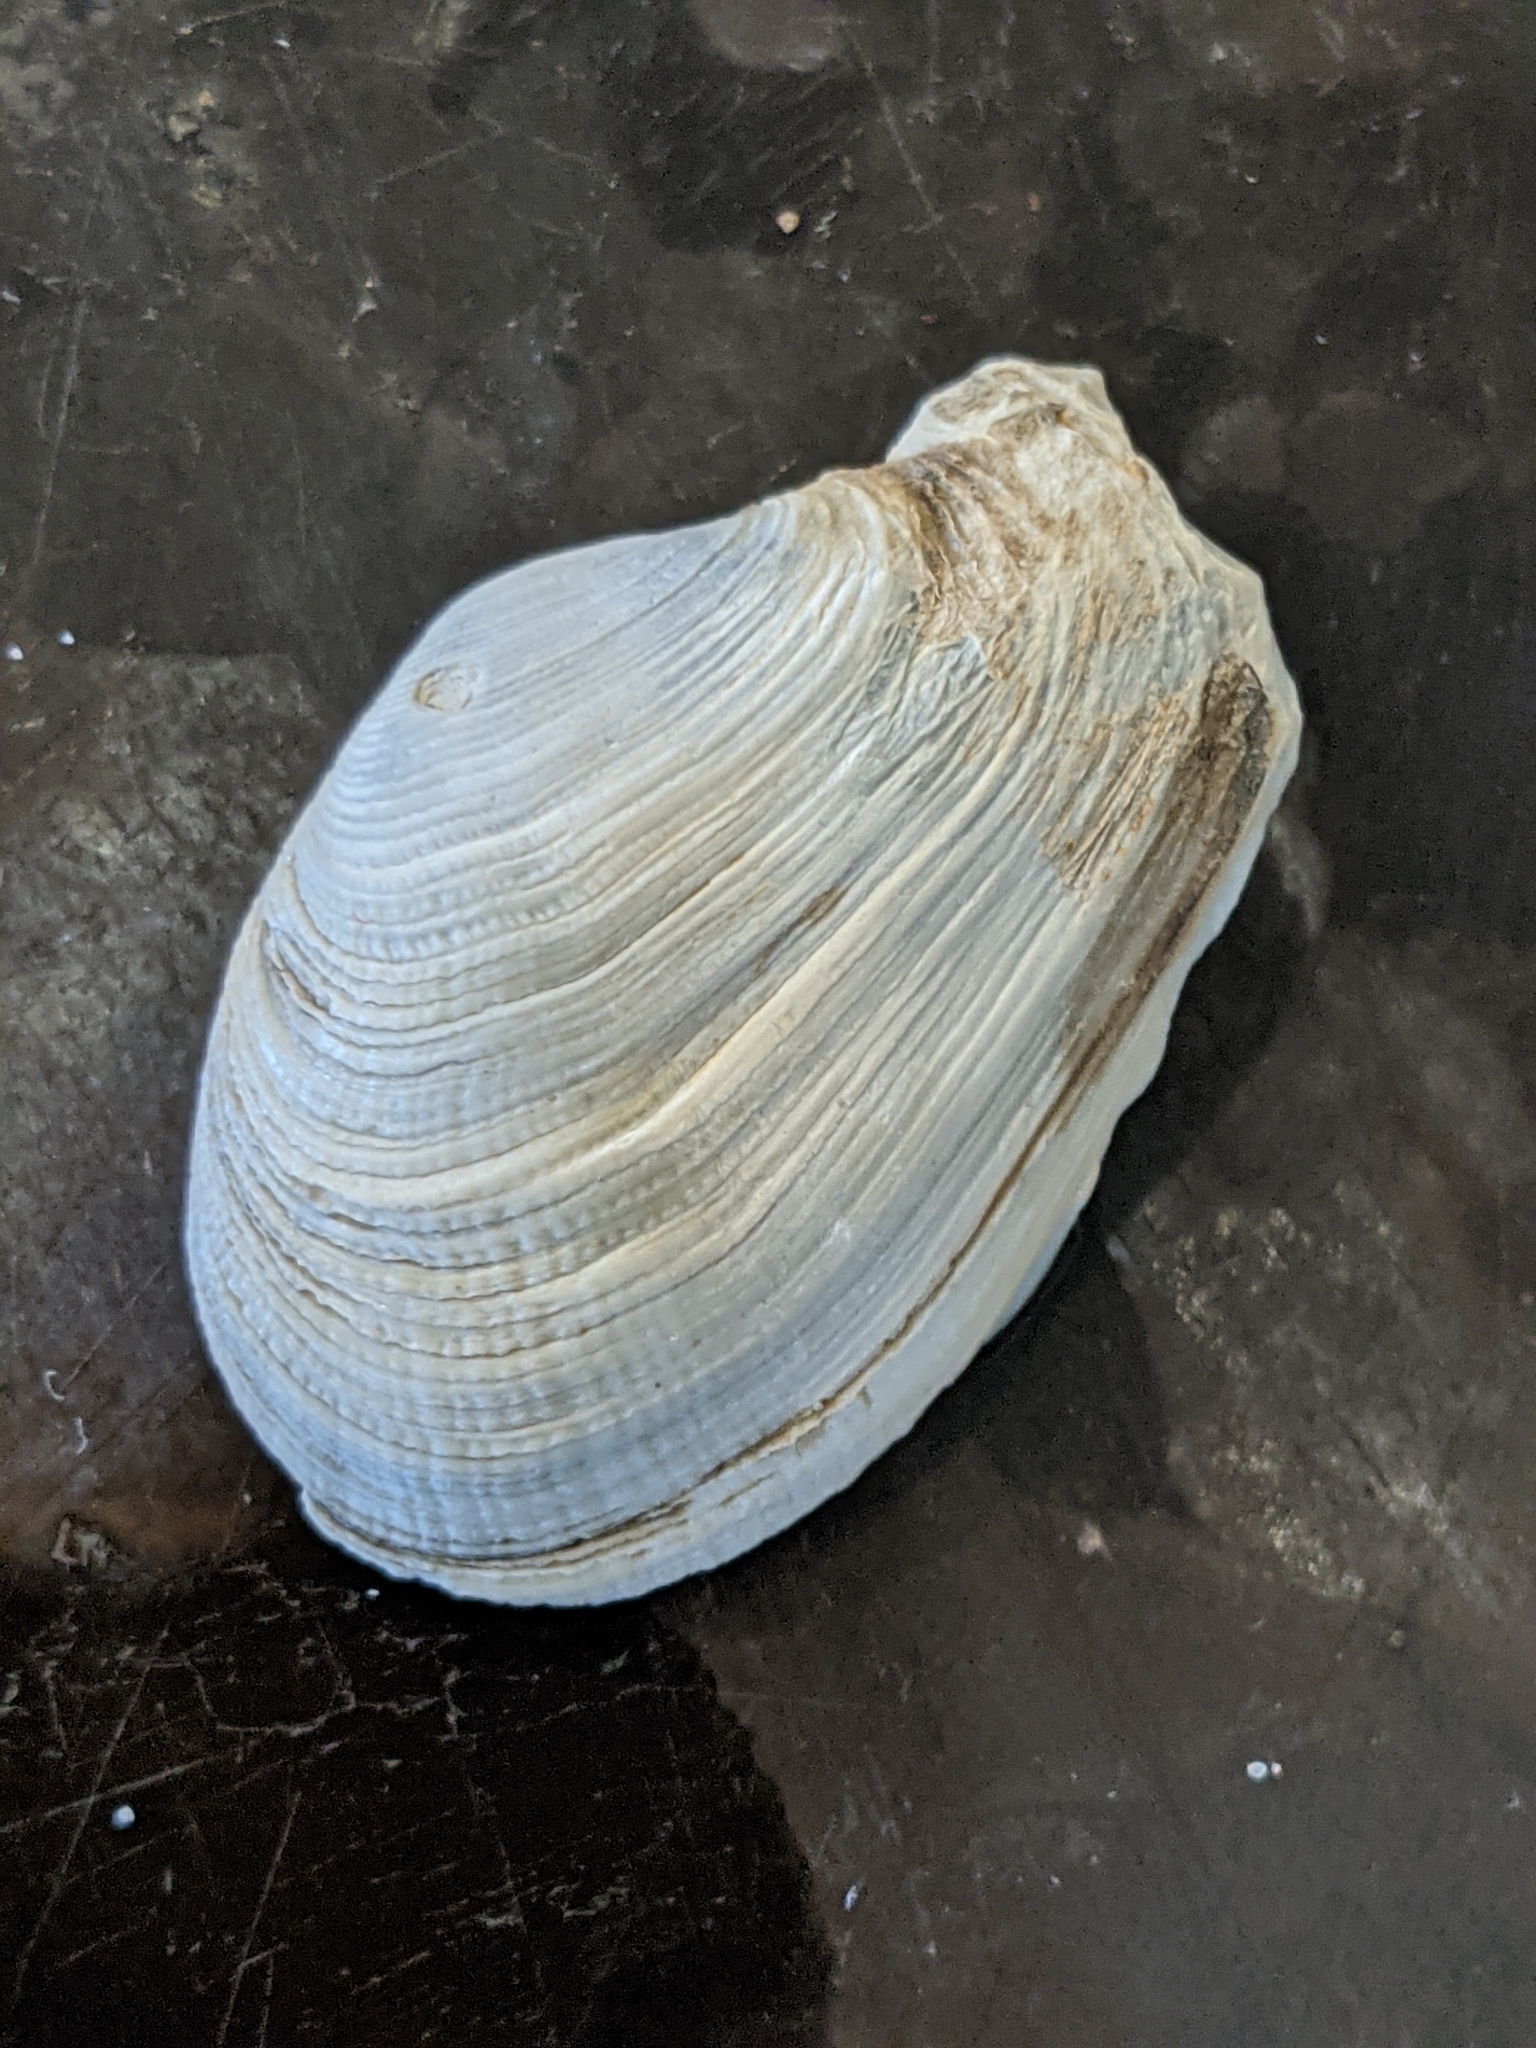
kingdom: Animalia
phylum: Mollusca
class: Bivalvia
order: Myida
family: Myidae
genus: Platyodon
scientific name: Platyodon cancellatus
